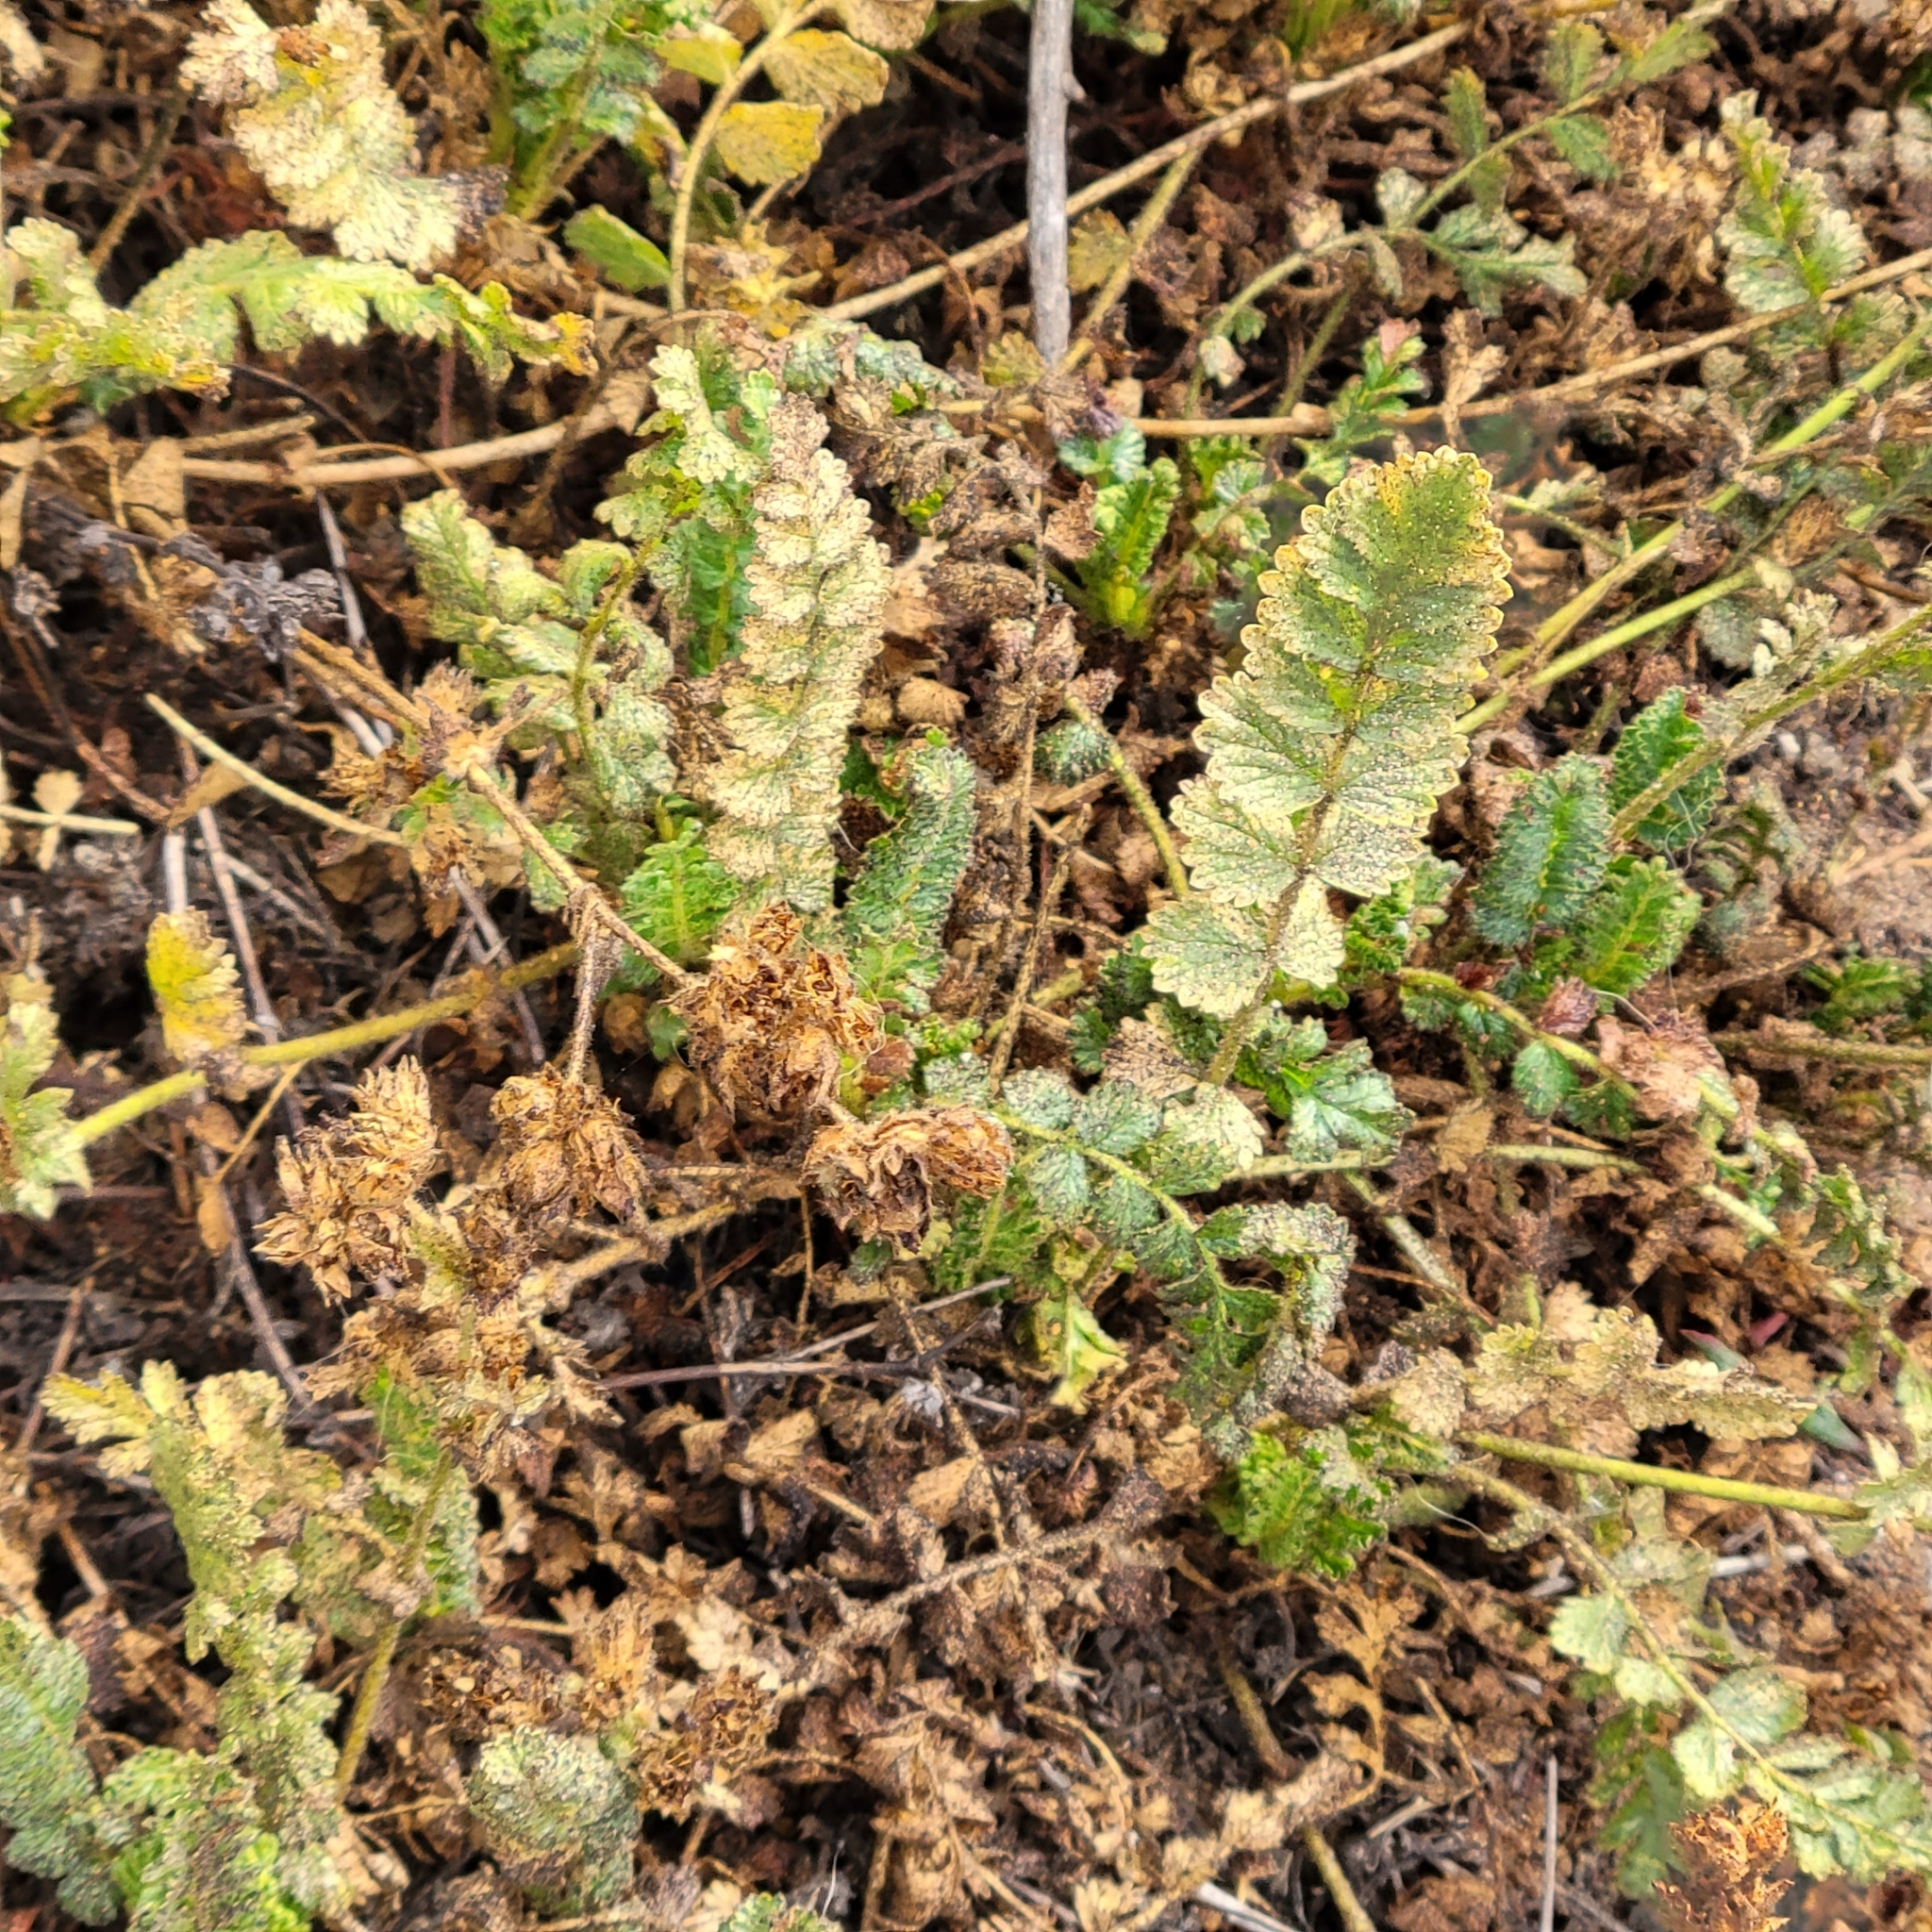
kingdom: Plantae
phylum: Tracheophyta
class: Magnoliopsida
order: Rosales
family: Rosaceae
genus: Potentilla
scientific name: Potentilla
